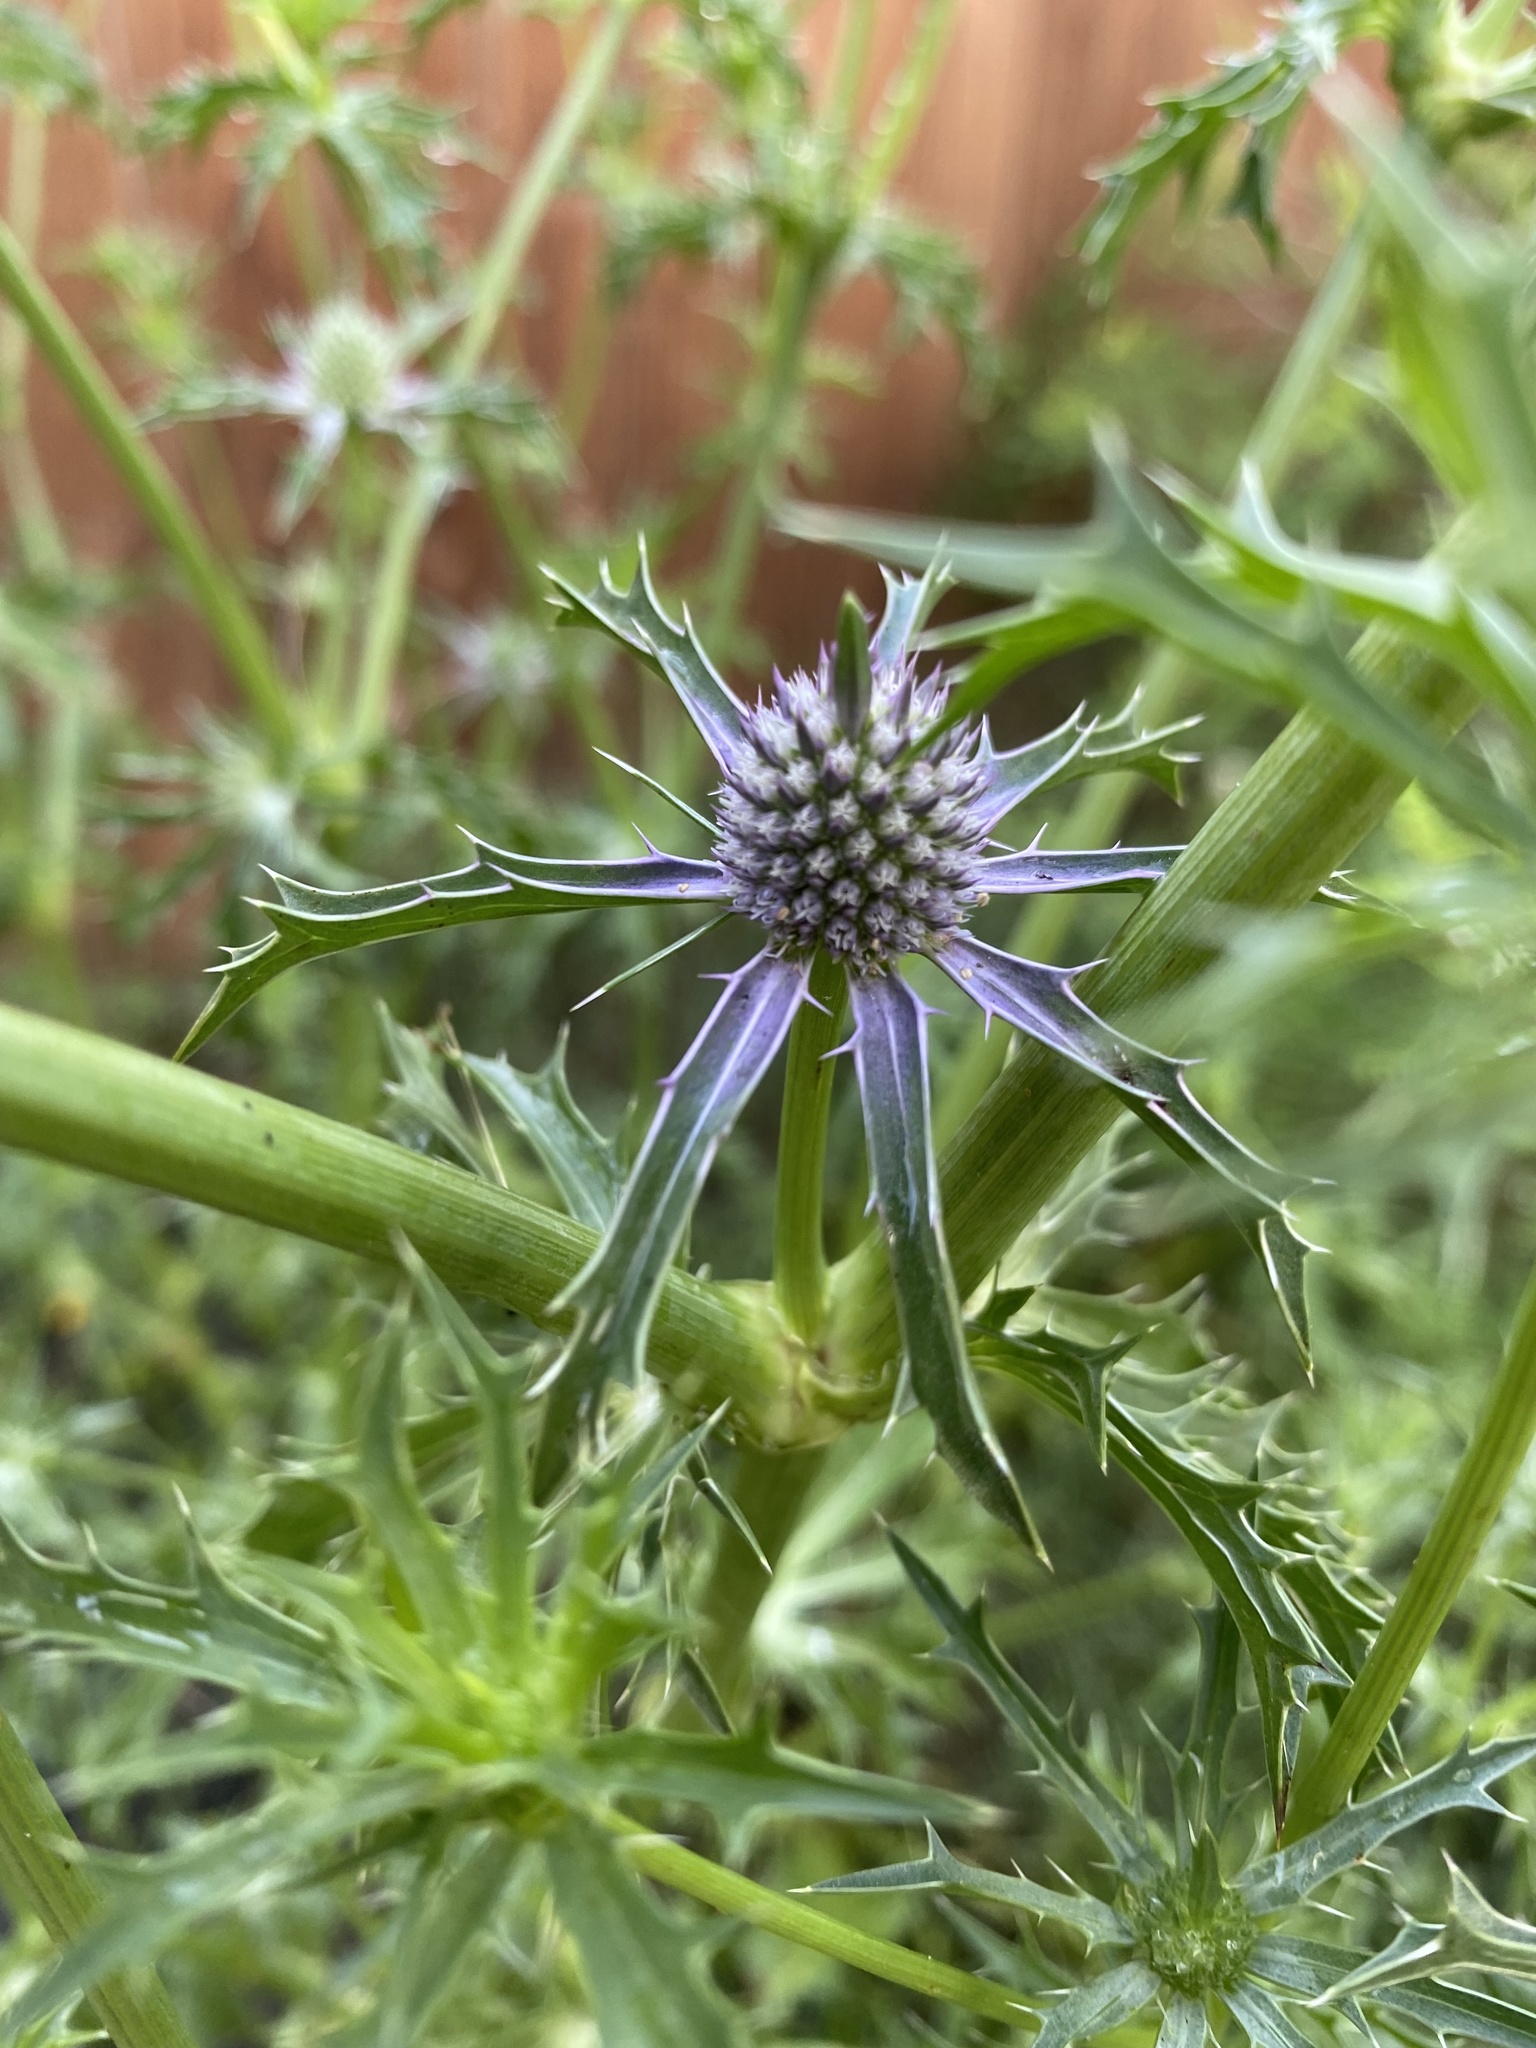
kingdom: Plantae
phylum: Tracheophyta
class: Magnoliopsida
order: Apiales
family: Apiaceae
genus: Eryngium
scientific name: Eryngium hookeri
